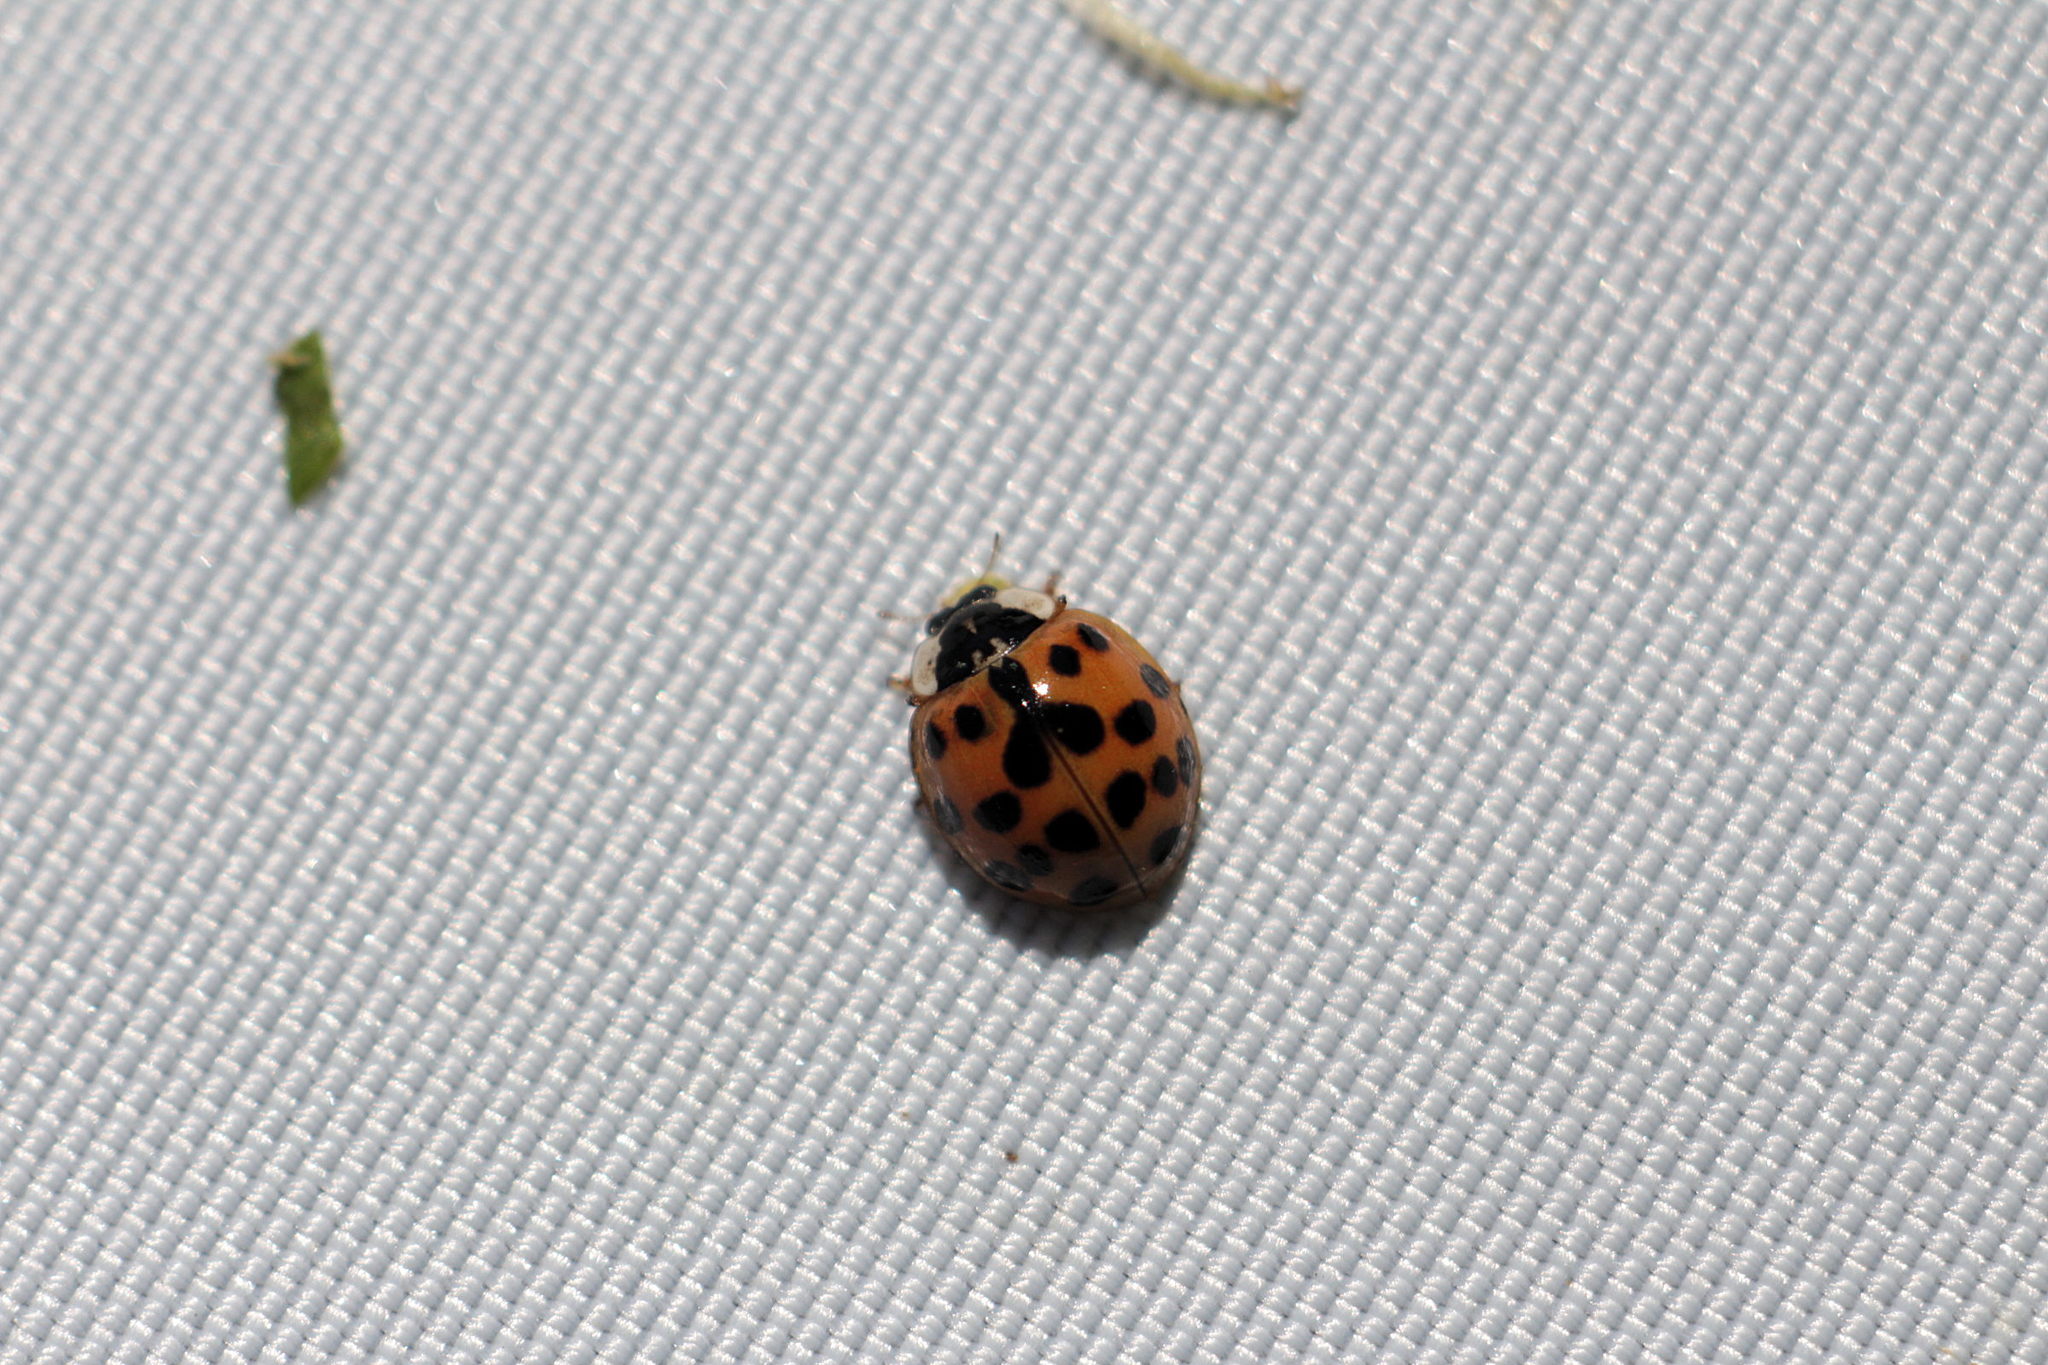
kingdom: Animalia
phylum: Arthropoda
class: Insecta
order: Coleoptera
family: Coccinellidae
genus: Harmonia
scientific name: Harmonia axyridis
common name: Harlequin ladybird
